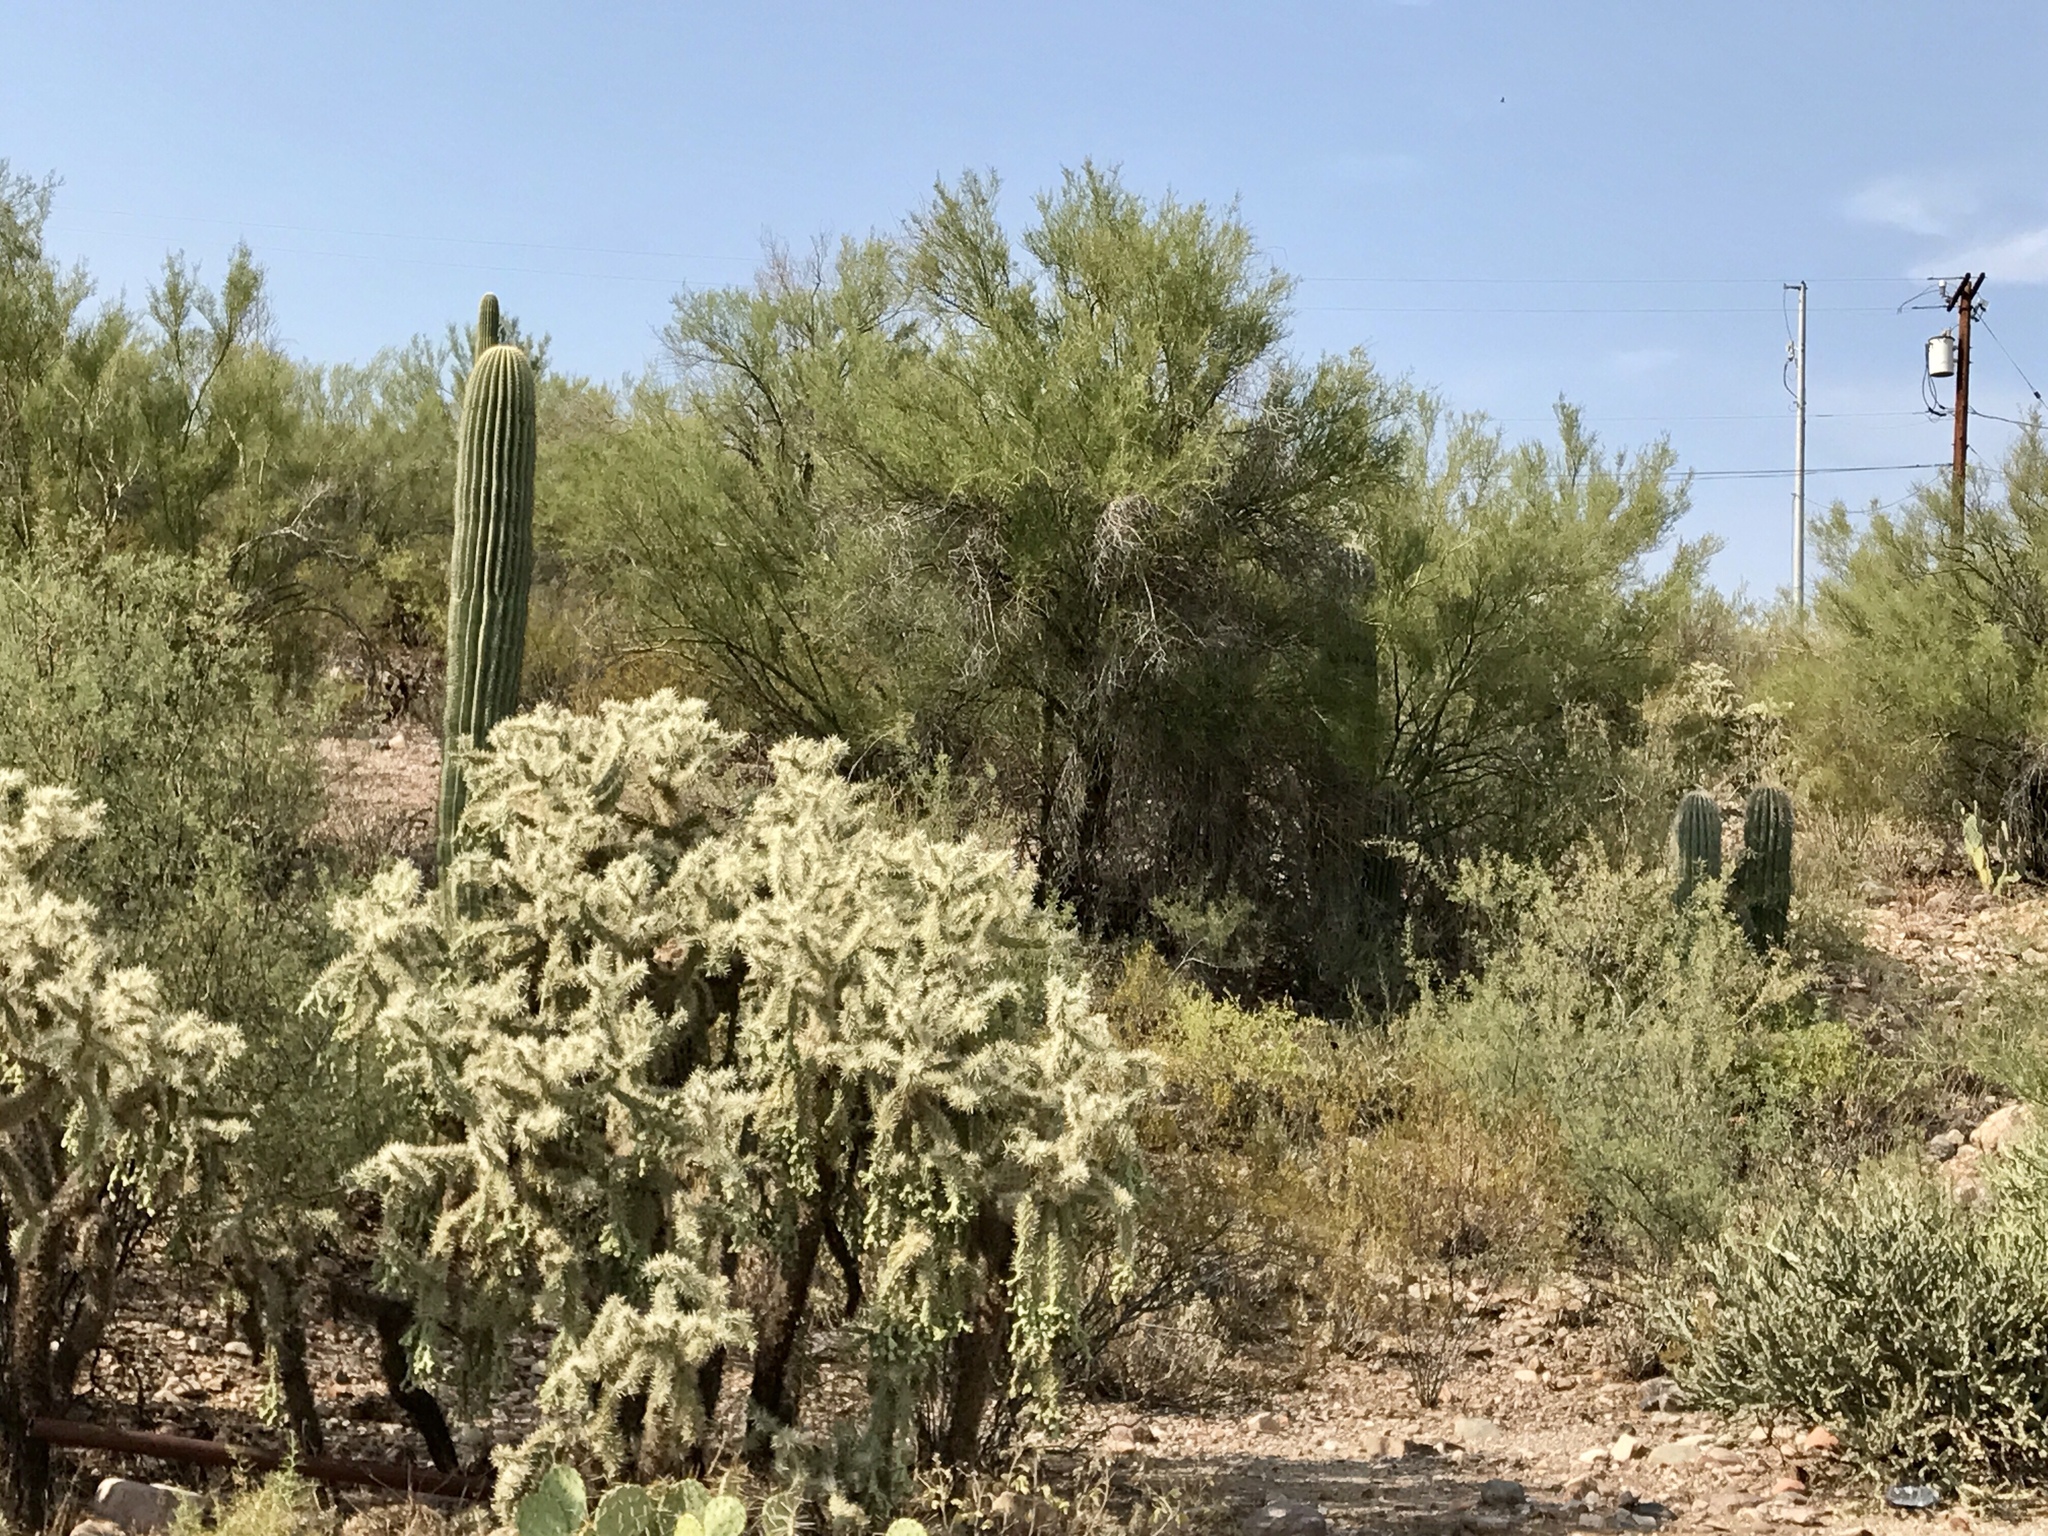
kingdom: Plantae
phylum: Tracheophyta
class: Magnoliopsida
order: Caryophyllales
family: Cactaceae
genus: Cylindropuntia
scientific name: Cylindropuntia fulgida
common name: Jumping cholla
